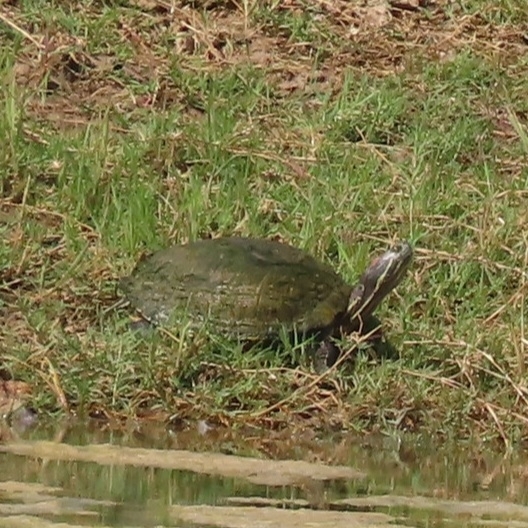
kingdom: Animalia
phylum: Chordata
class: Testudines
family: Emydidae
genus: Trachemys
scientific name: Trachemys scripta
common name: Slider
